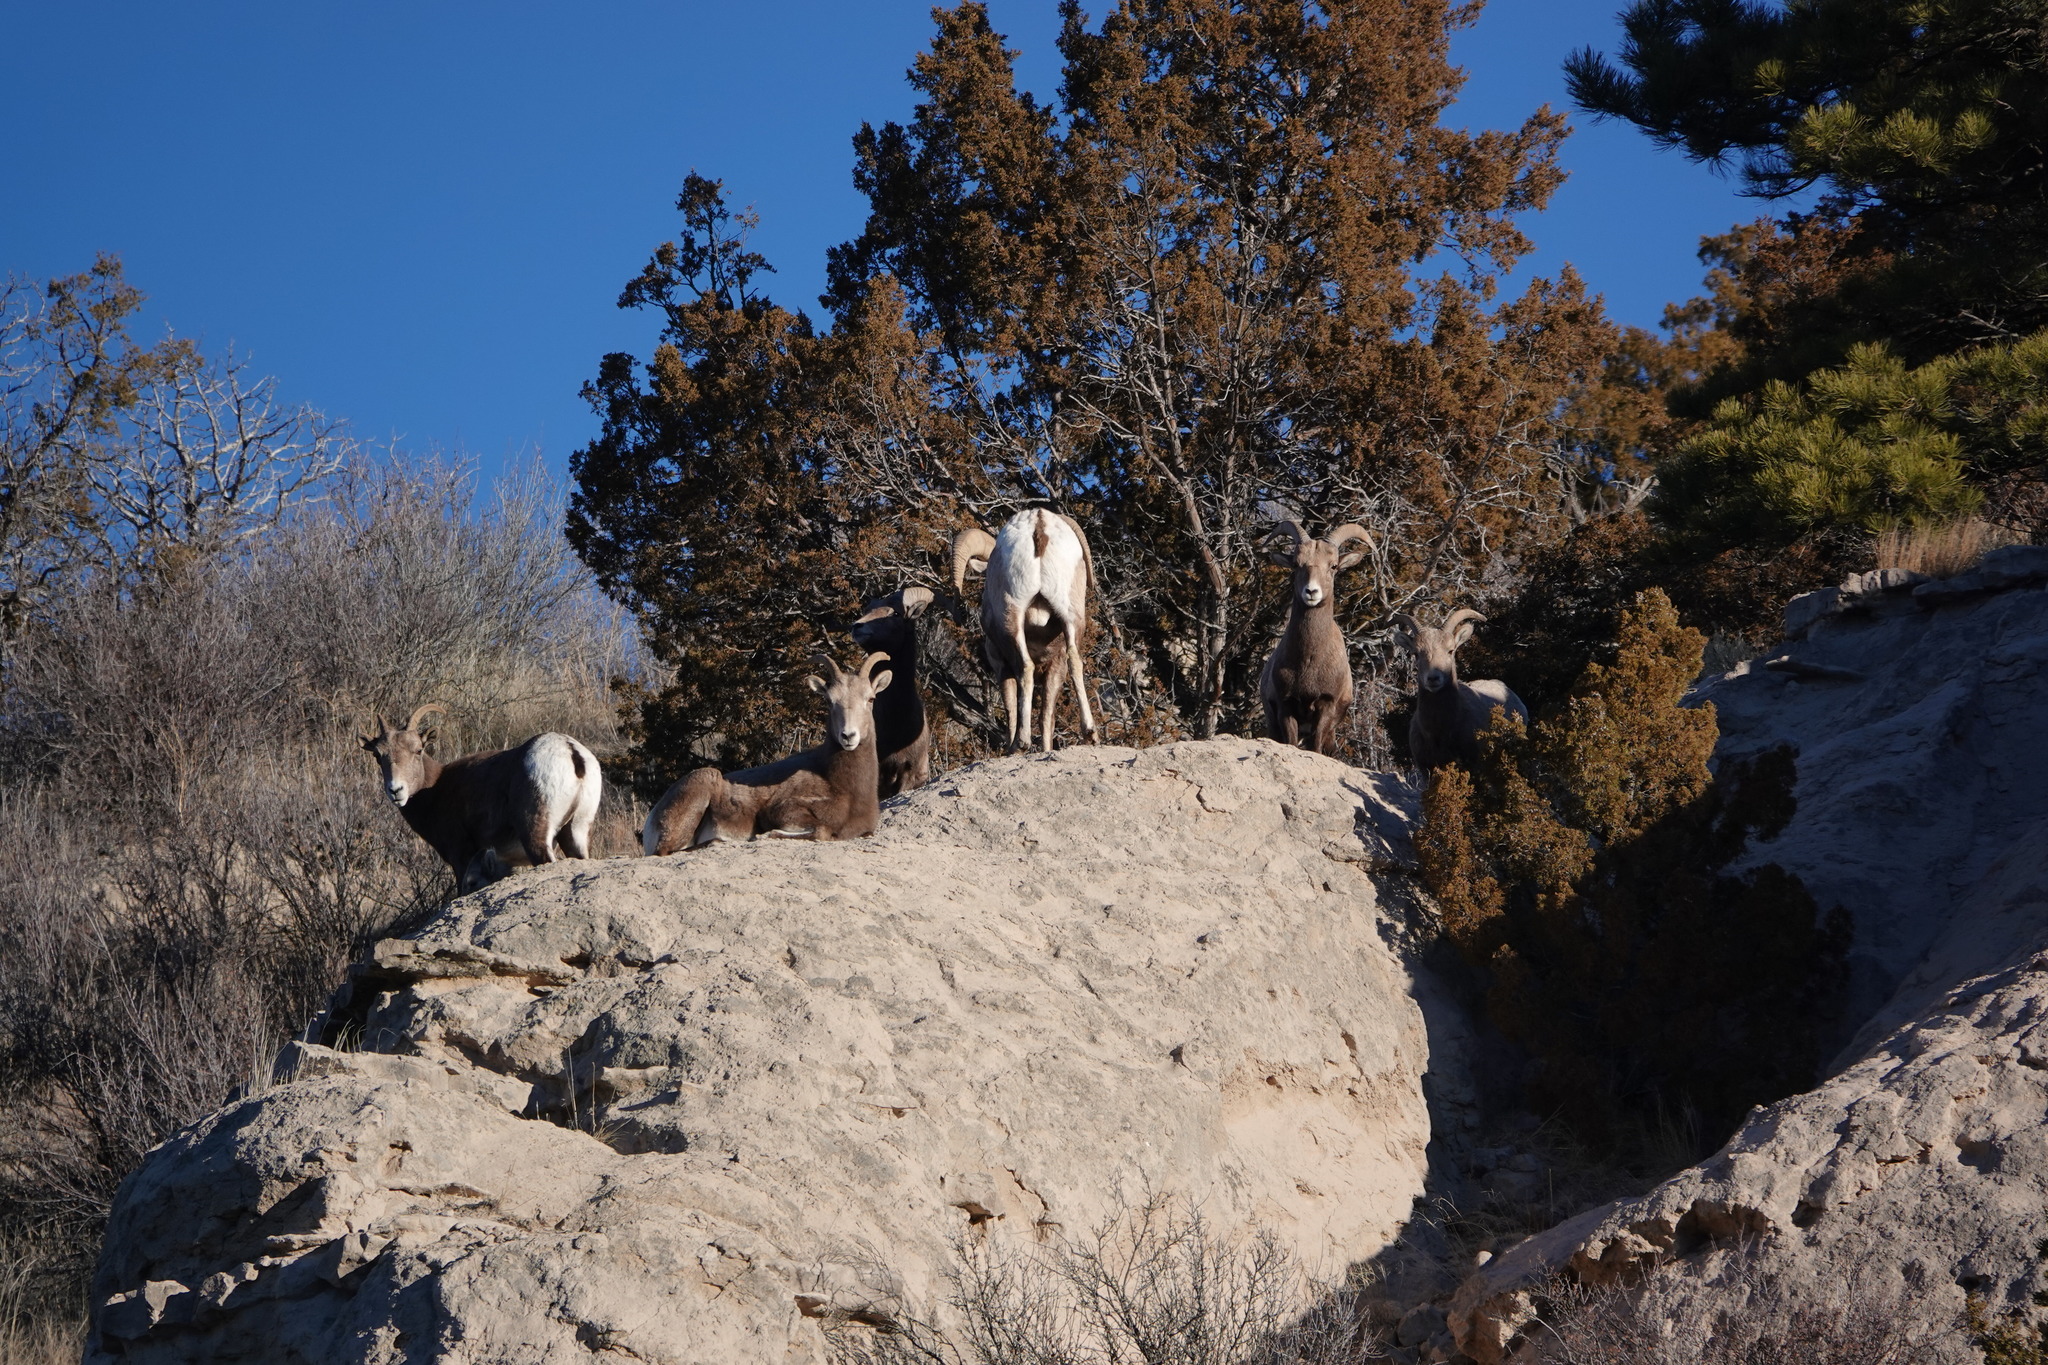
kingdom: Animalia
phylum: Chordata
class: Mammalia
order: Artiodactyla
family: Bovidae
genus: Ovis
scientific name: Ovis canadensis
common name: Bighorn sheep
